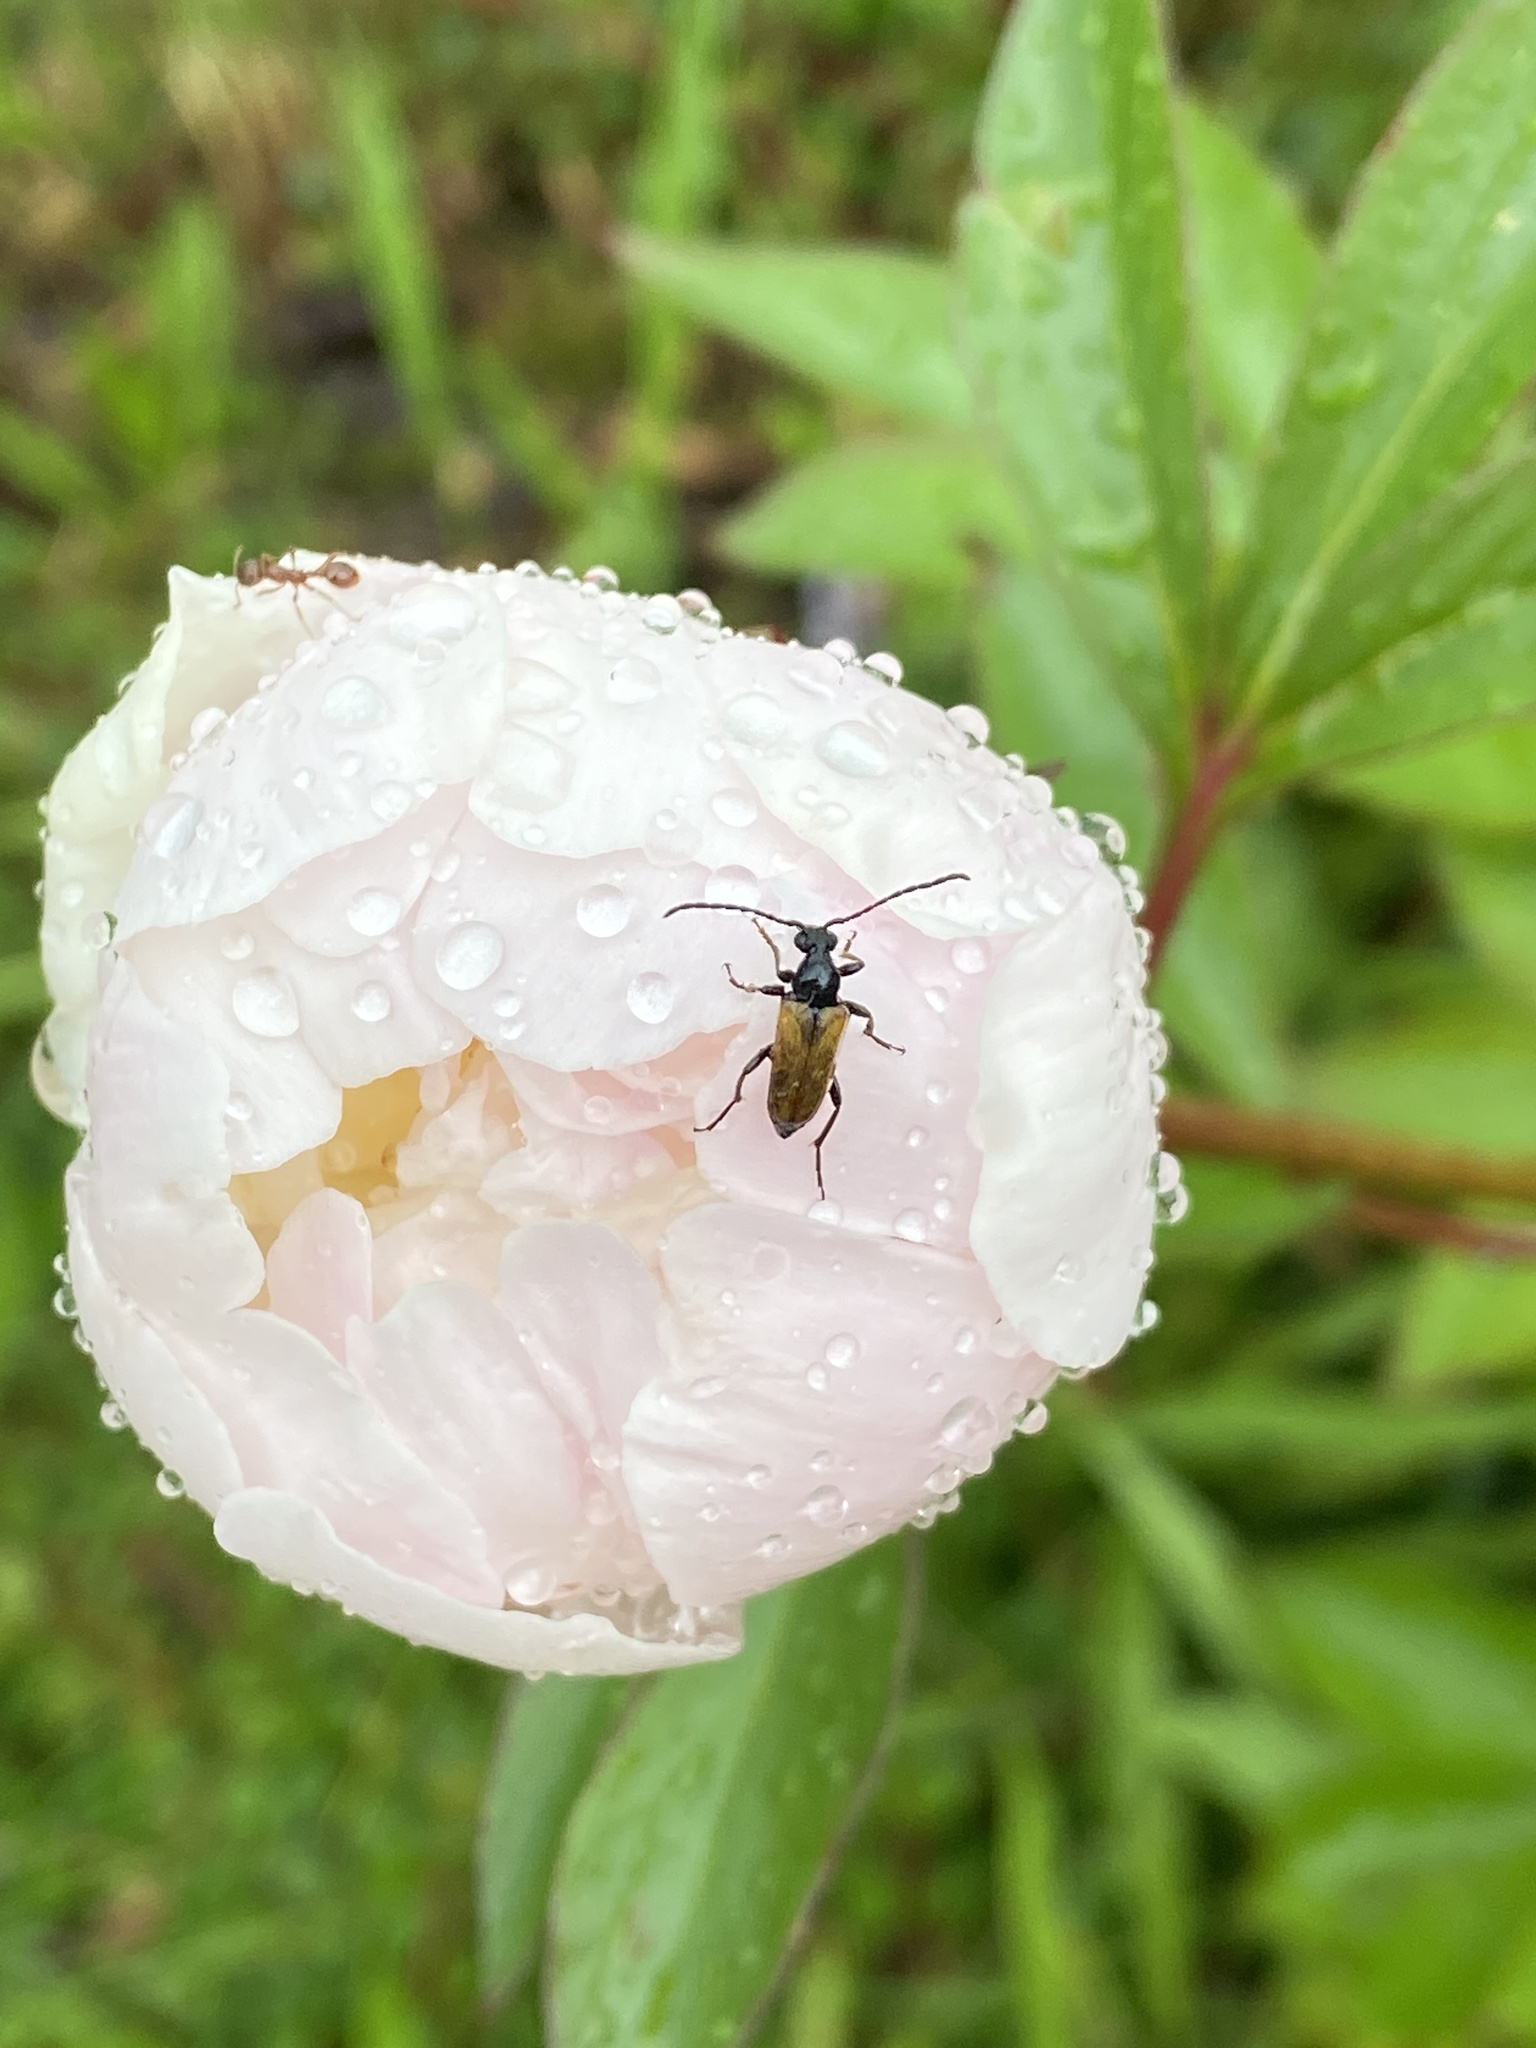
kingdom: Animalia
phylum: Arthropoda
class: Insecta
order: Coleoptera
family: Cerambycidae
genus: Pseudovadonia
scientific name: Pseudovadonia livida
